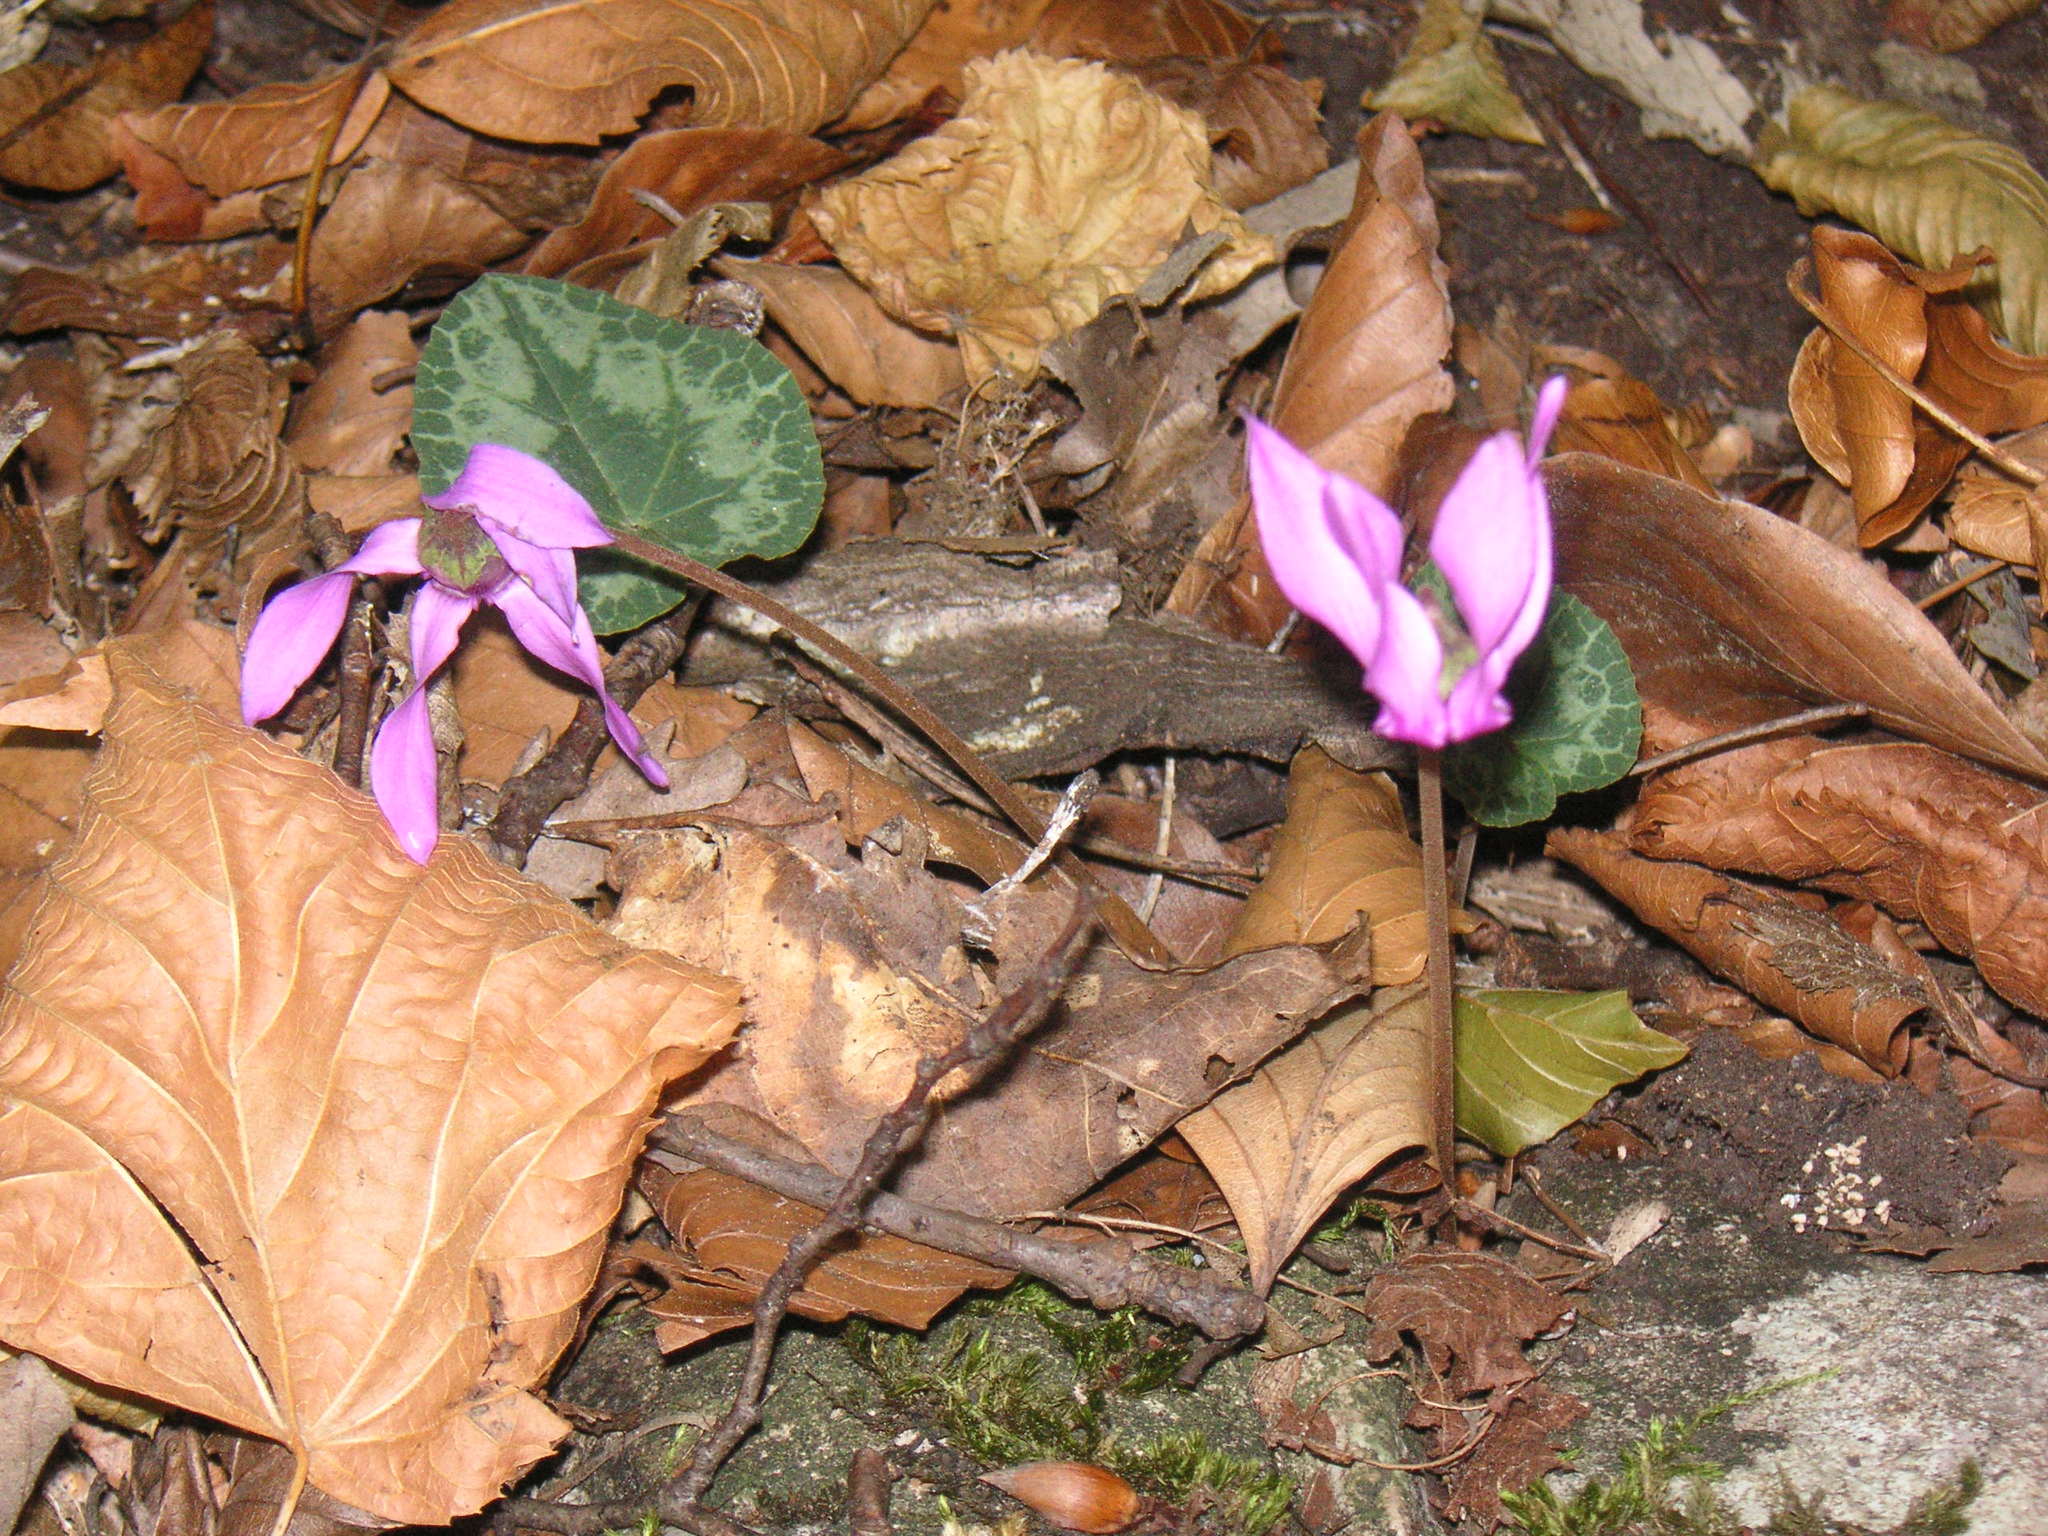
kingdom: Plantae
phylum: Tracheophyta
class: Magnoliopsida
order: Ericales
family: Primulaceae
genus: Cyclamen
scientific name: Cyclamen purpurascens
